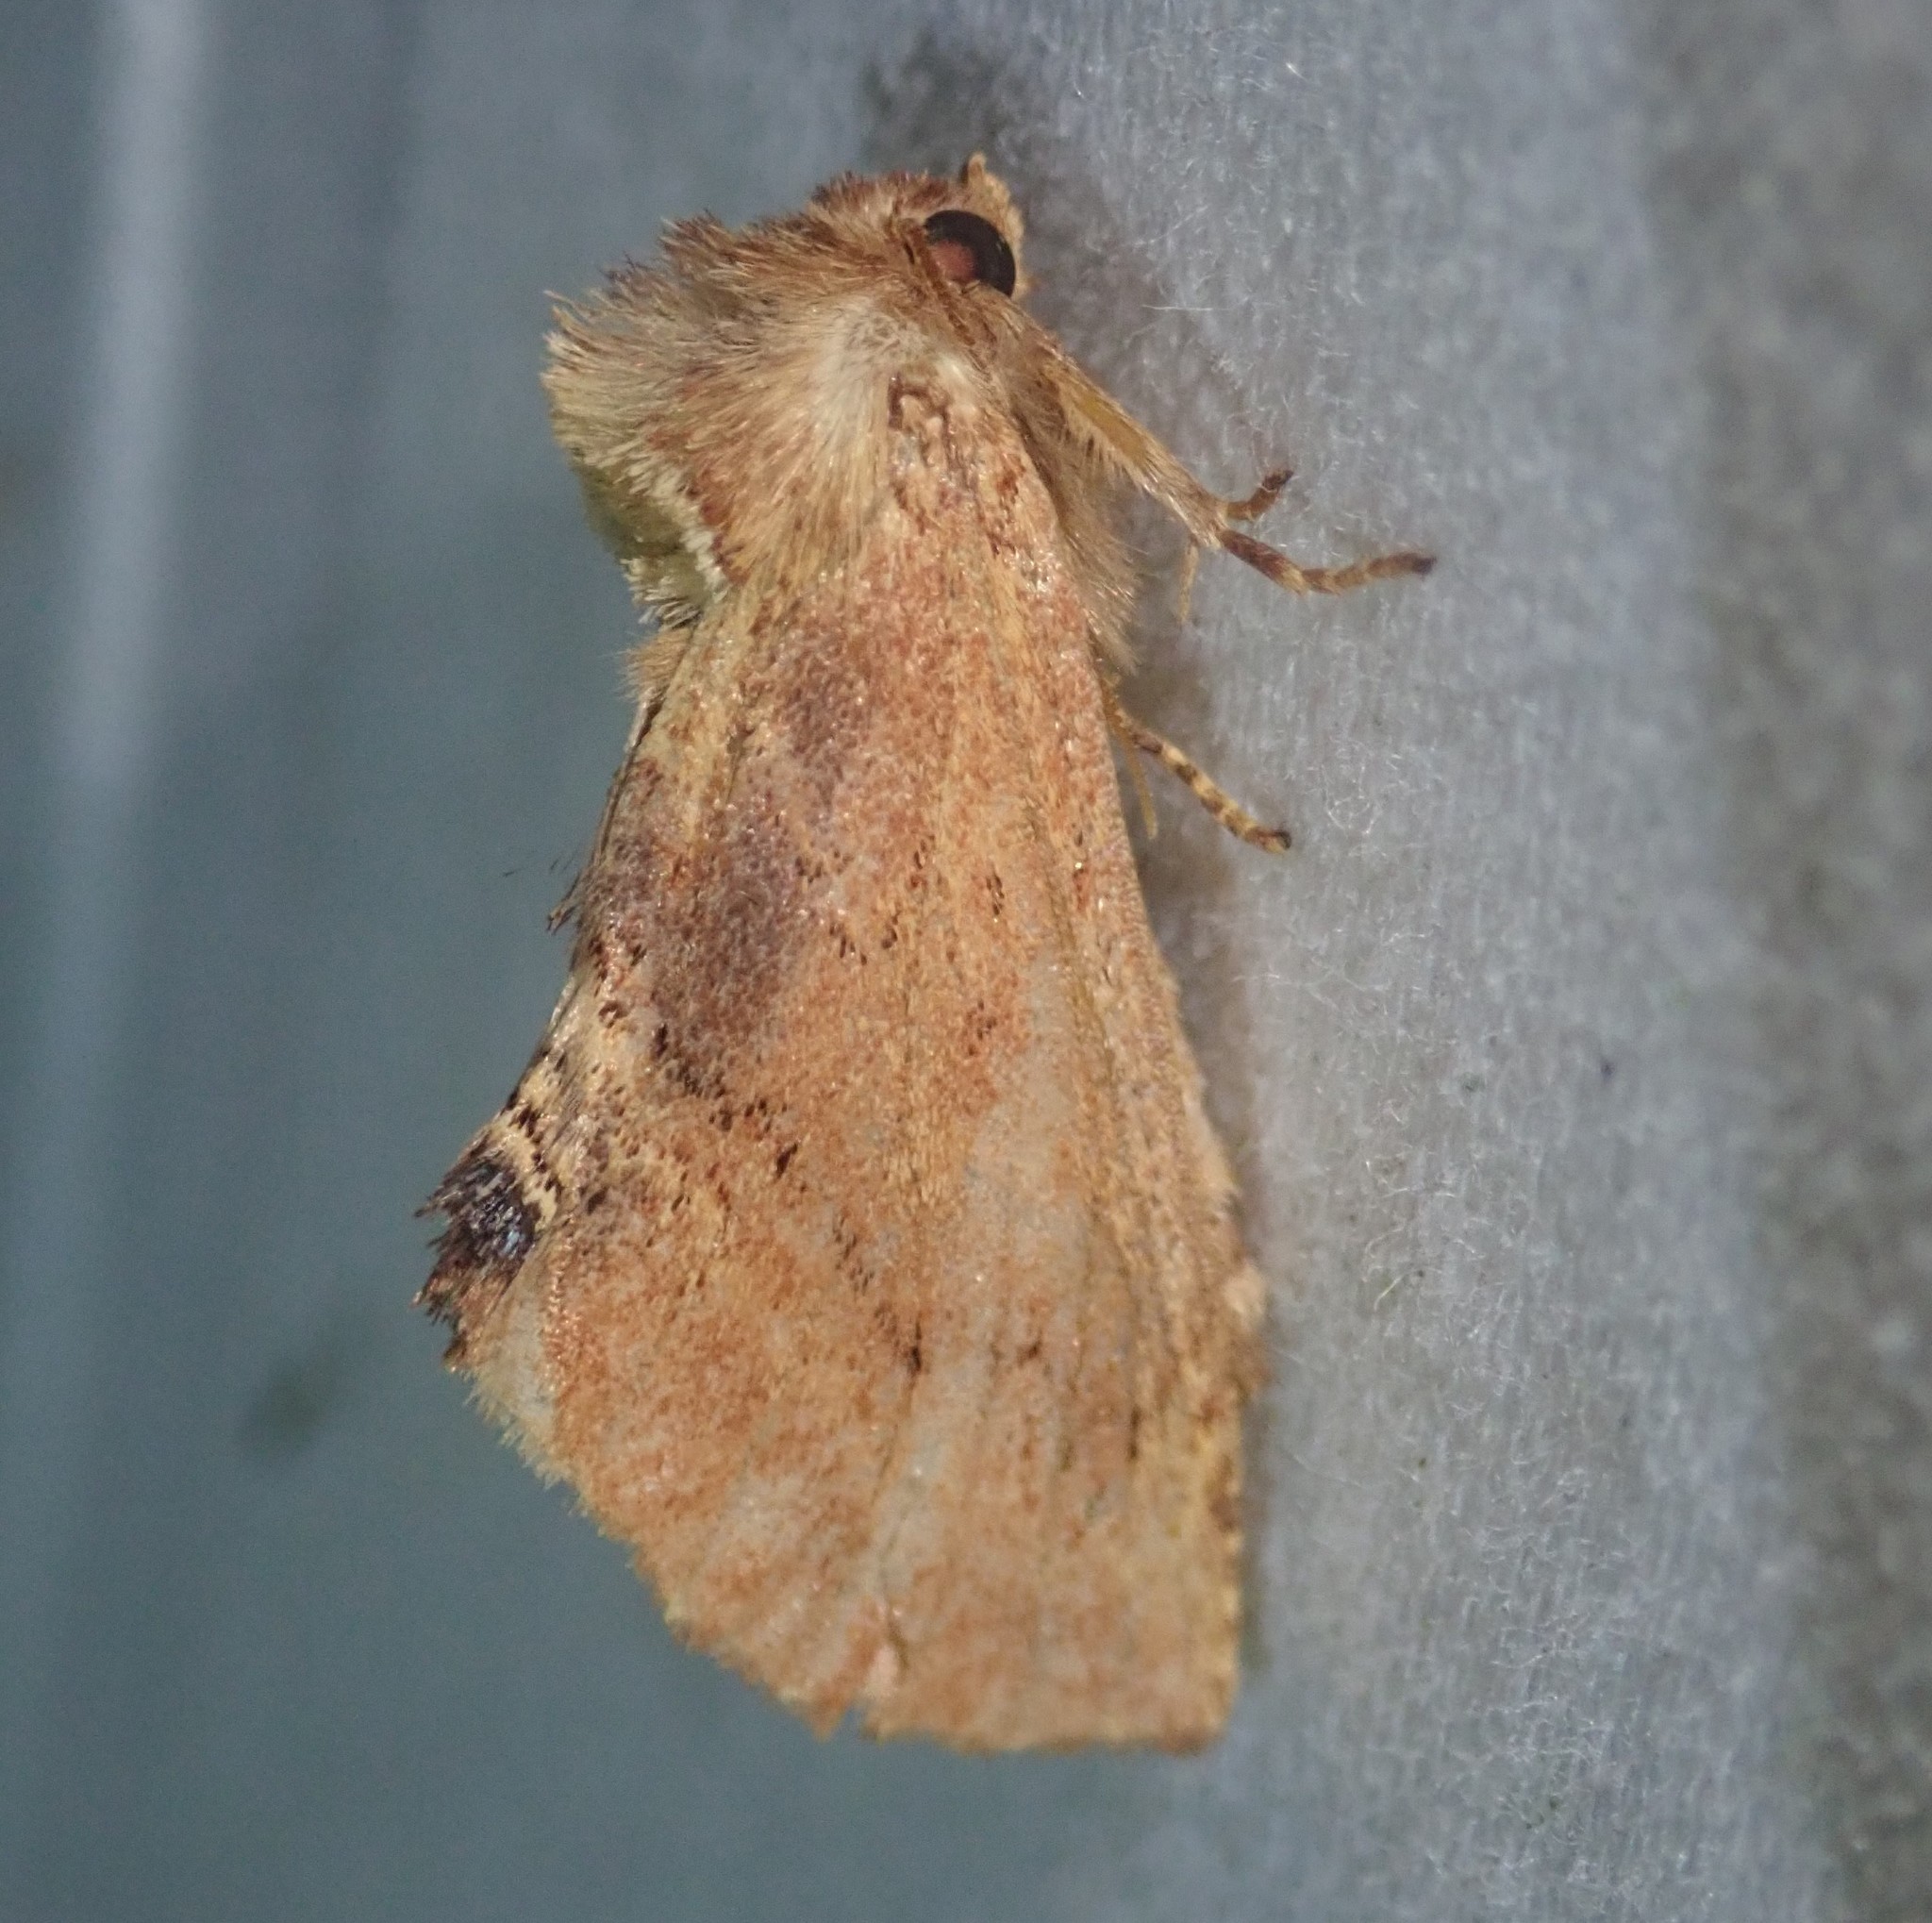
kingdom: Animalia
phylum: Arthropoda
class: Insecta
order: Lepidoptera
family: Notodontidae
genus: Ptilodon
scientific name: Ptilodon capucina
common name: Coxcomb prominent
